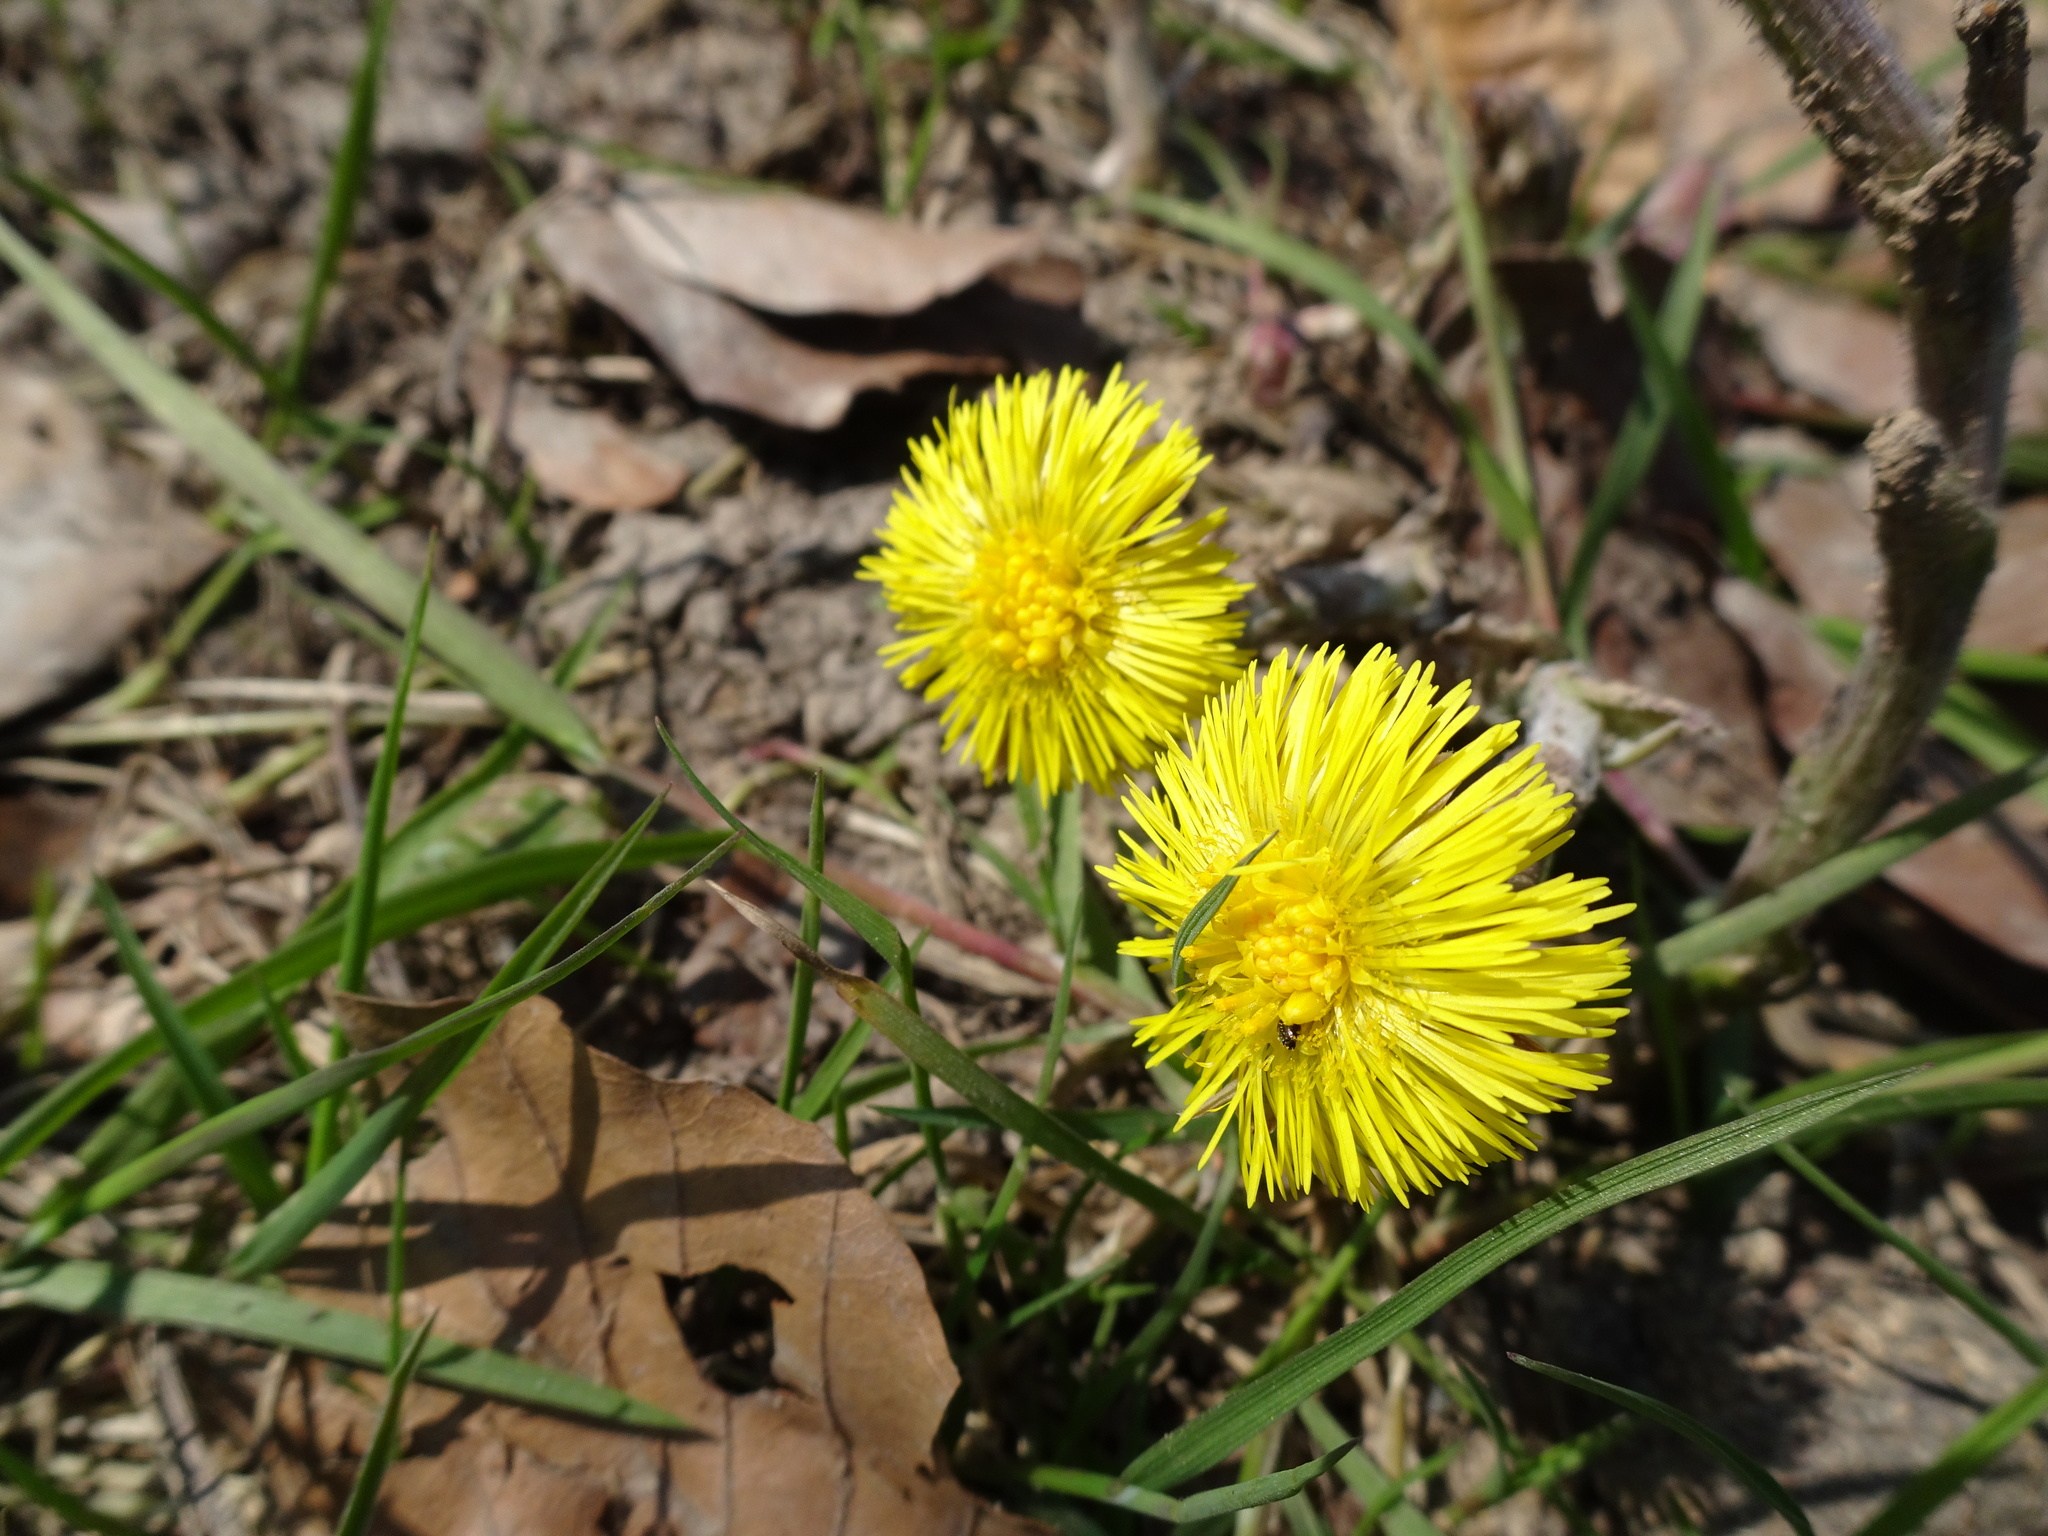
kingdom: Plantae
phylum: Tracheophyta
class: Magnoliopsida
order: Asterales
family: Asteraceae
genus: Tussilago
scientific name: Tussilago farfara
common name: Coltsfoot
